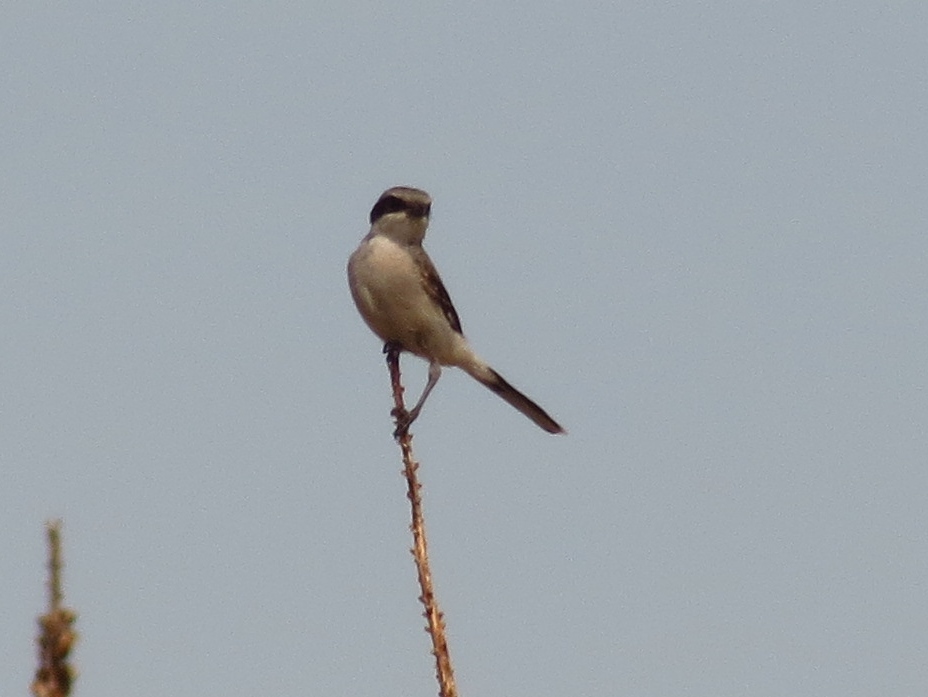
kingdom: Animalia
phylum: Chordata
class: Aves
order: Passeriformes
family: Laniidae
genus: Lanius
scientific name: Lanius ludovicianus
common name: Loggerhead shrike
